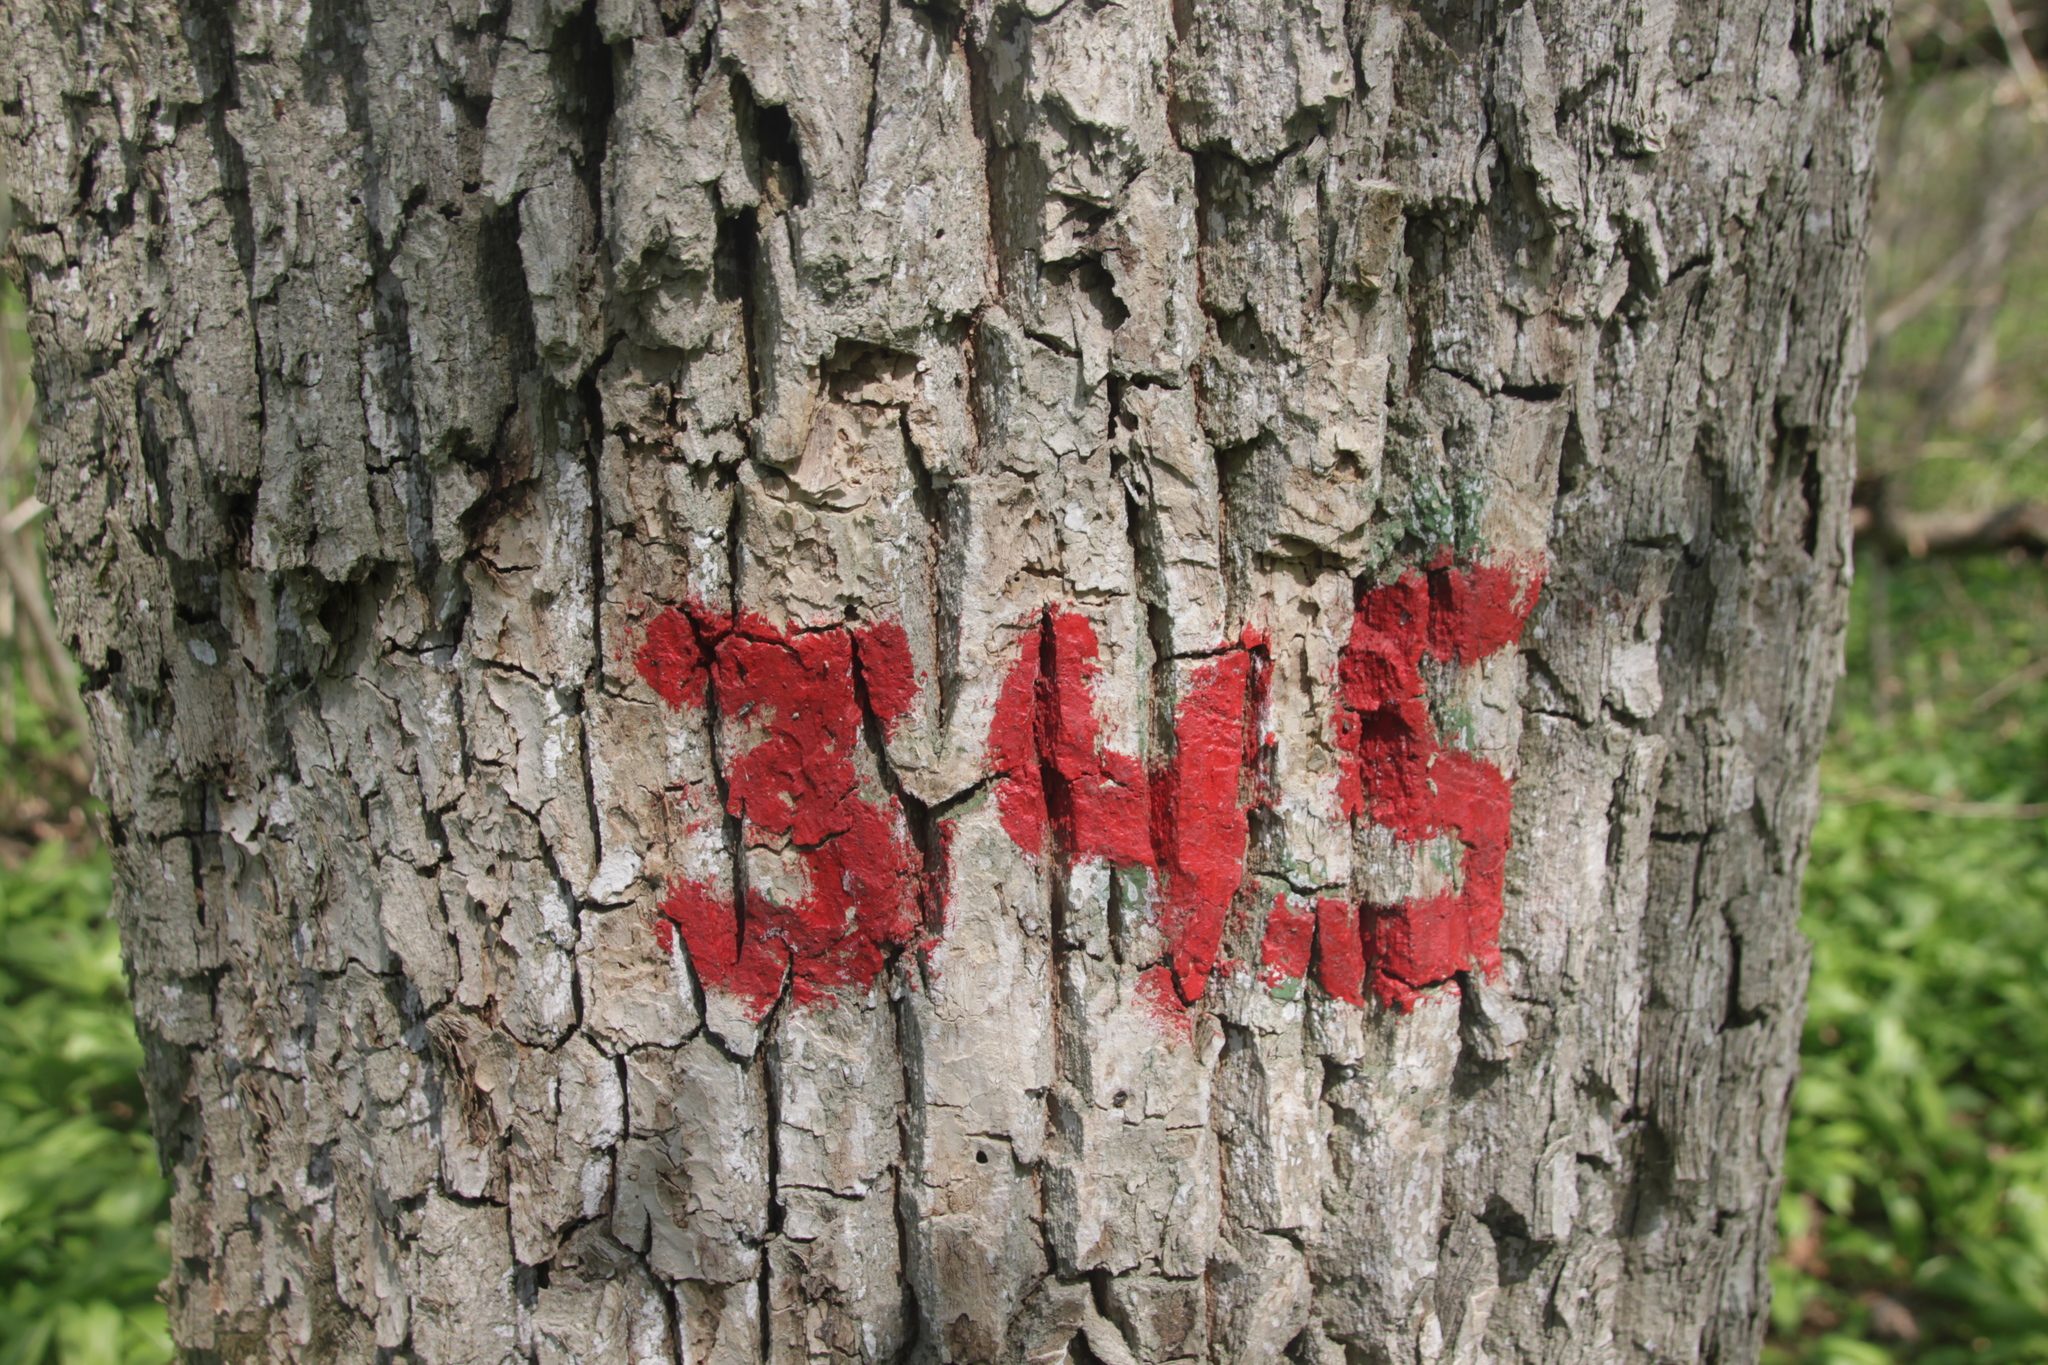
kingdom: Plantae
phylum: Tracheophyta
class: Magnoliopsida
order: Sapindales
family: Sapindaceae
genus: Acer
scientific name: Acer platanoides
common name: Norway maple
